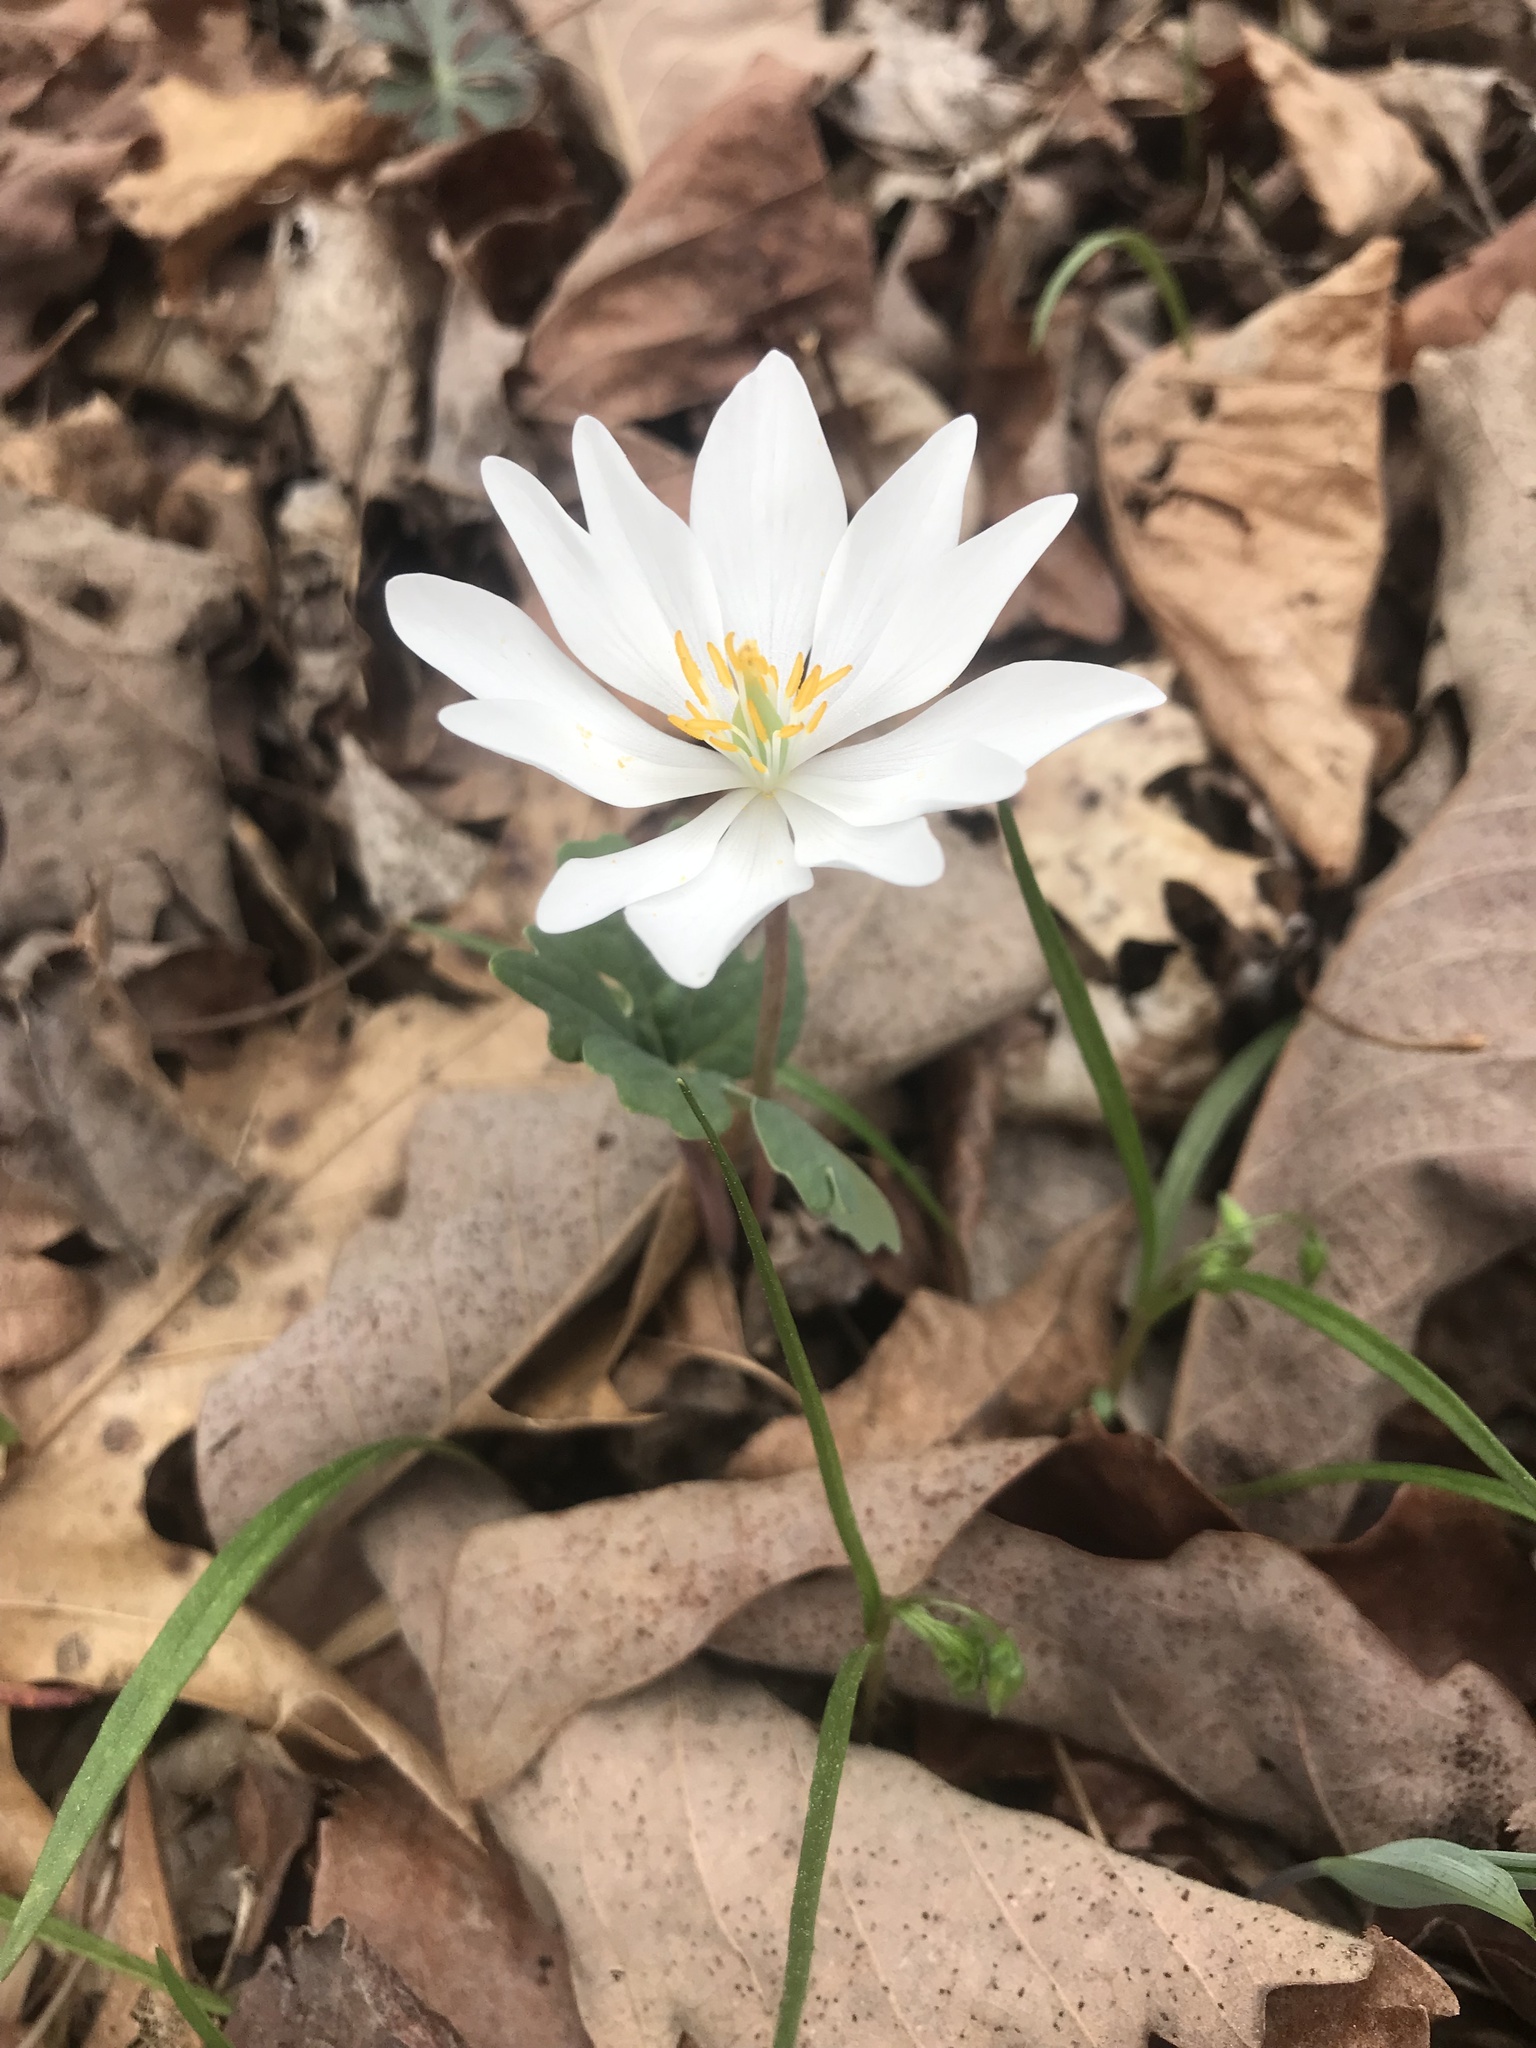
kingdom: Plantae
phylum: Tracheophyta
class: Magnoliopsida
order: Ranunculales
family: Papaveraceae
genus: Sanguinaria
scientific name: Sanguinaria canadensis
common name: Bloodroot
